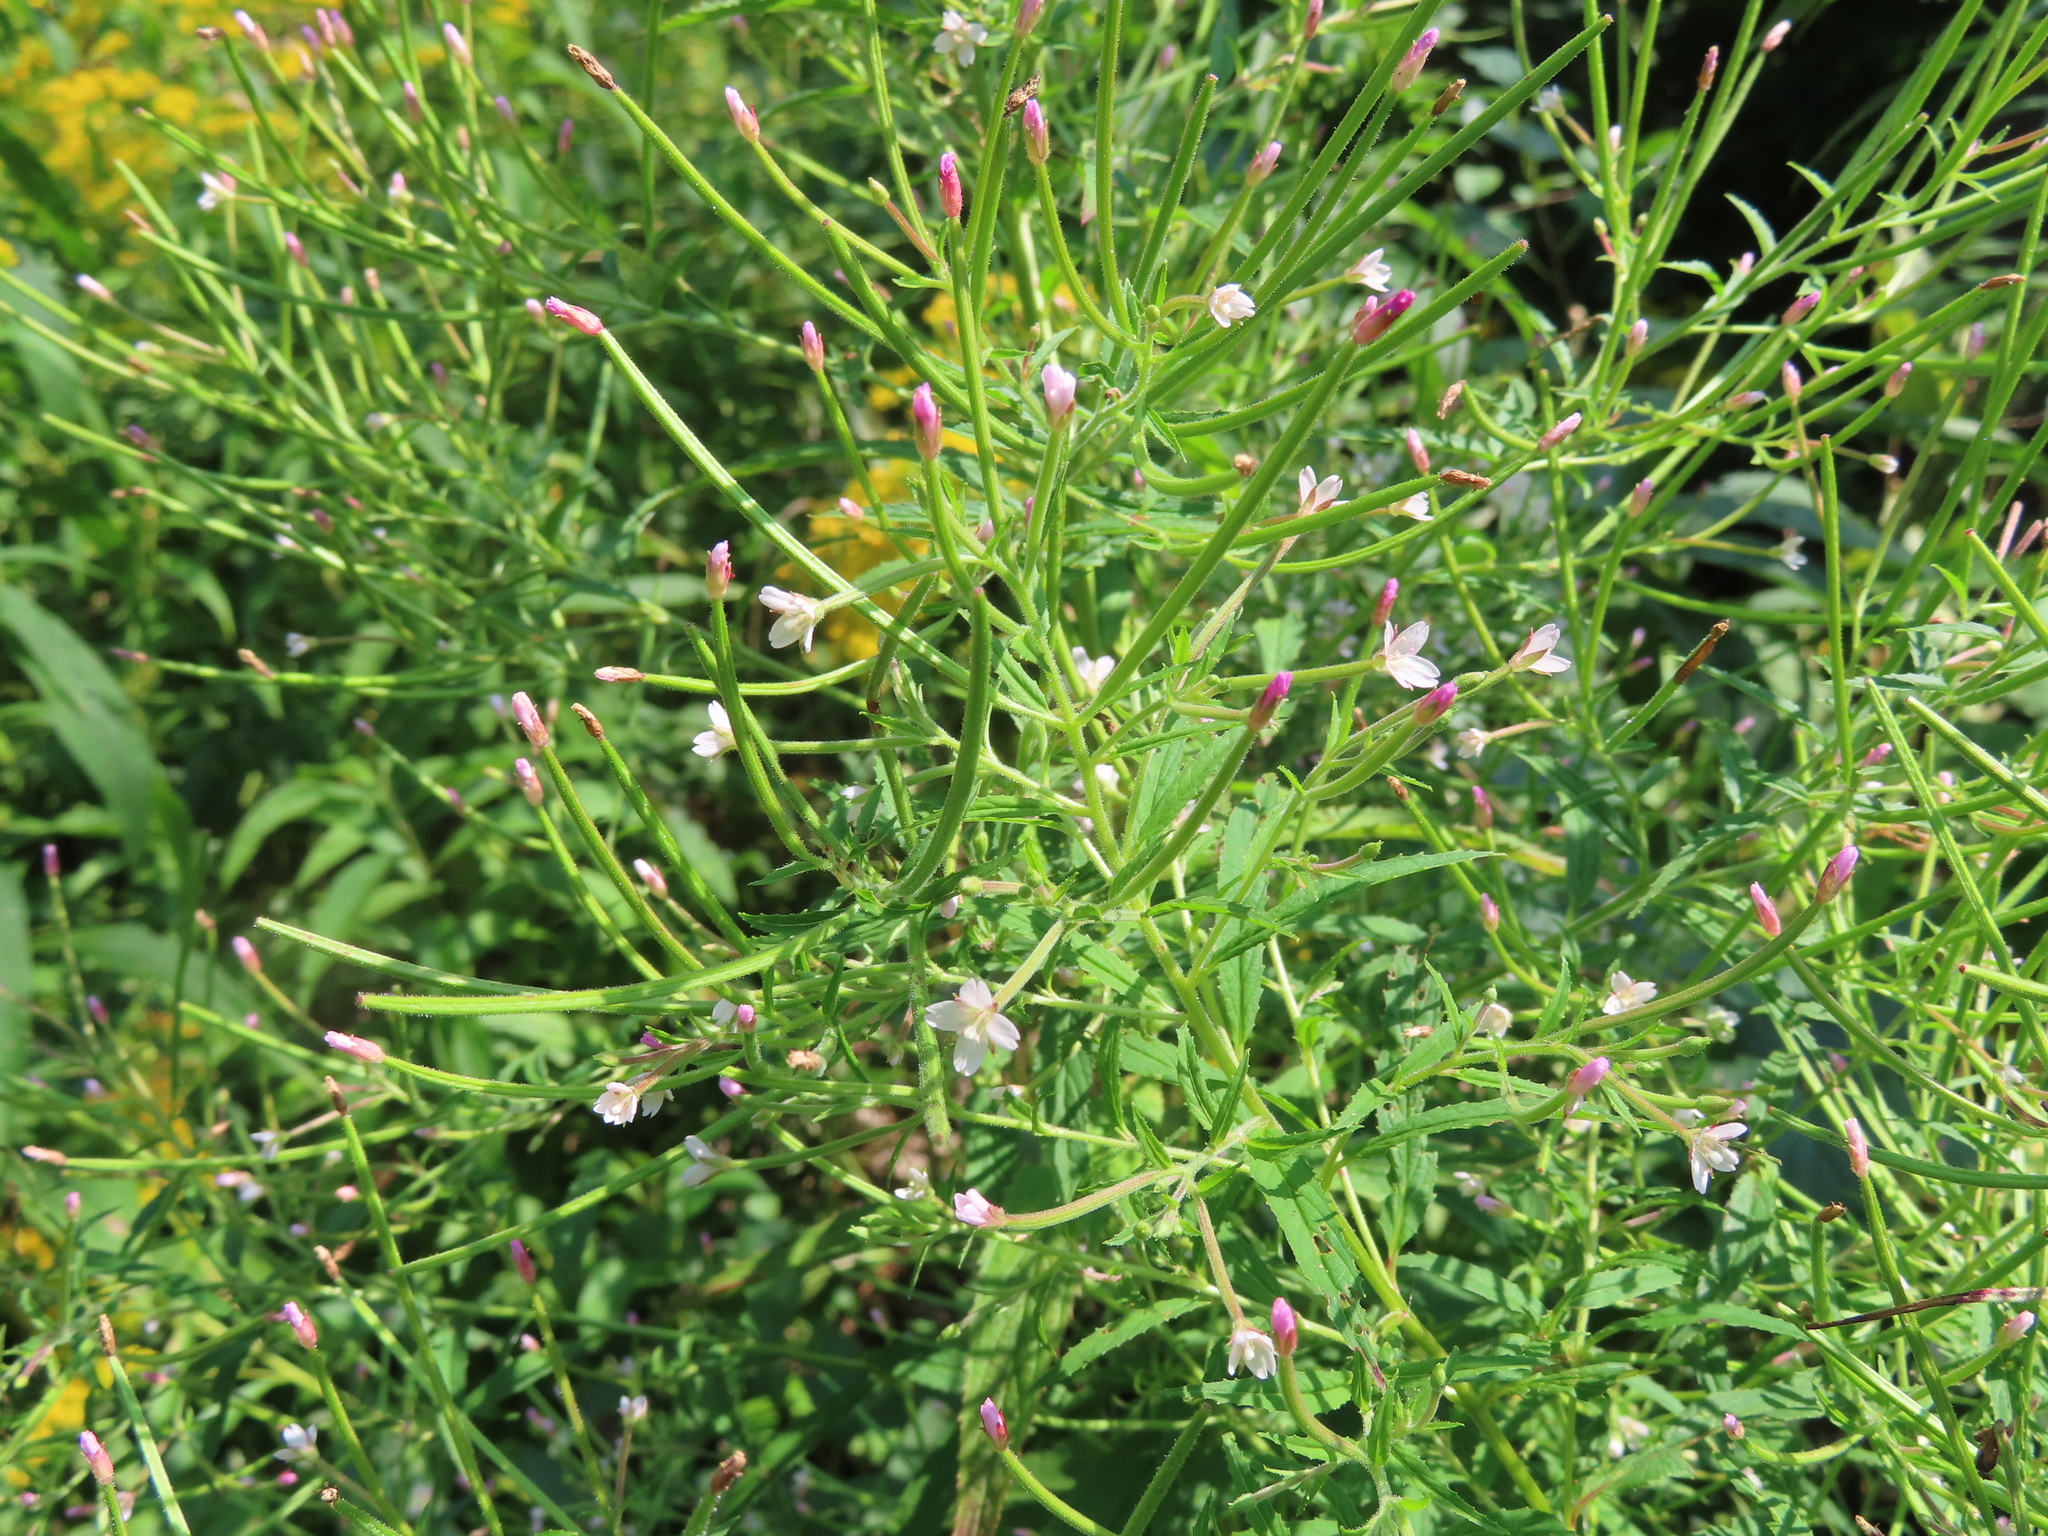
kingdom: Plantae
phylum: Tracheophyta
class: Magnoliopsida
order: Myrtales
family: Onagraceae
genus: Epilobium
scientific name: Epilobium coloratum
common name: Bronze willowherb
